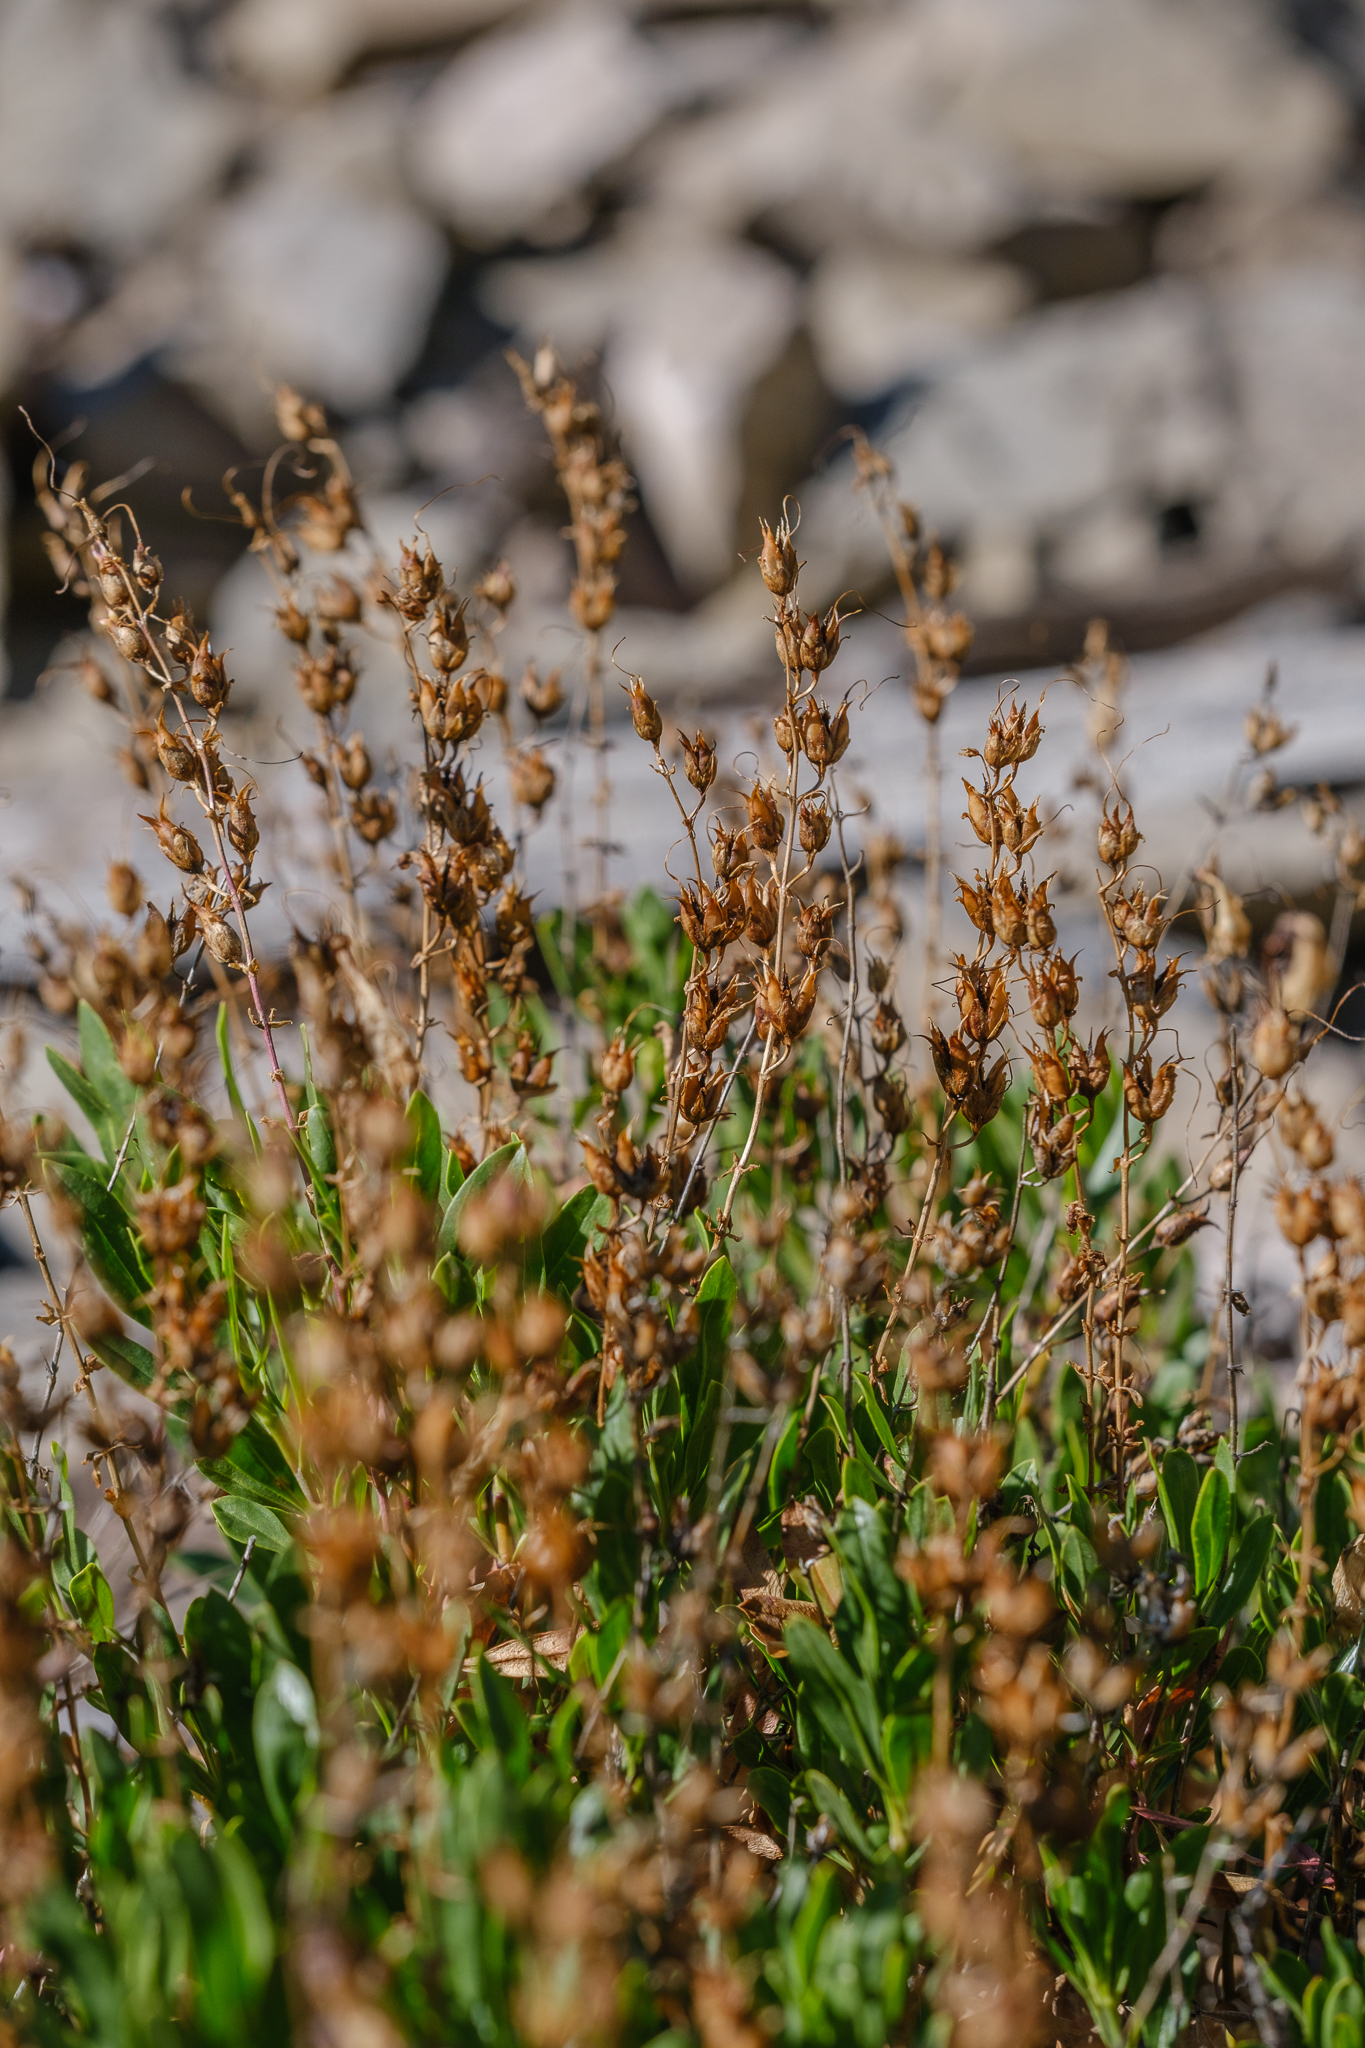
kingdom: Plantae
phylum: Tracheophyta
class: Magnoliopsida
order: Lamiales
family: Plantaginaceae
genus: Penstemon
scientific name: Penstemon fruticosus
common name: Bush penstemon
